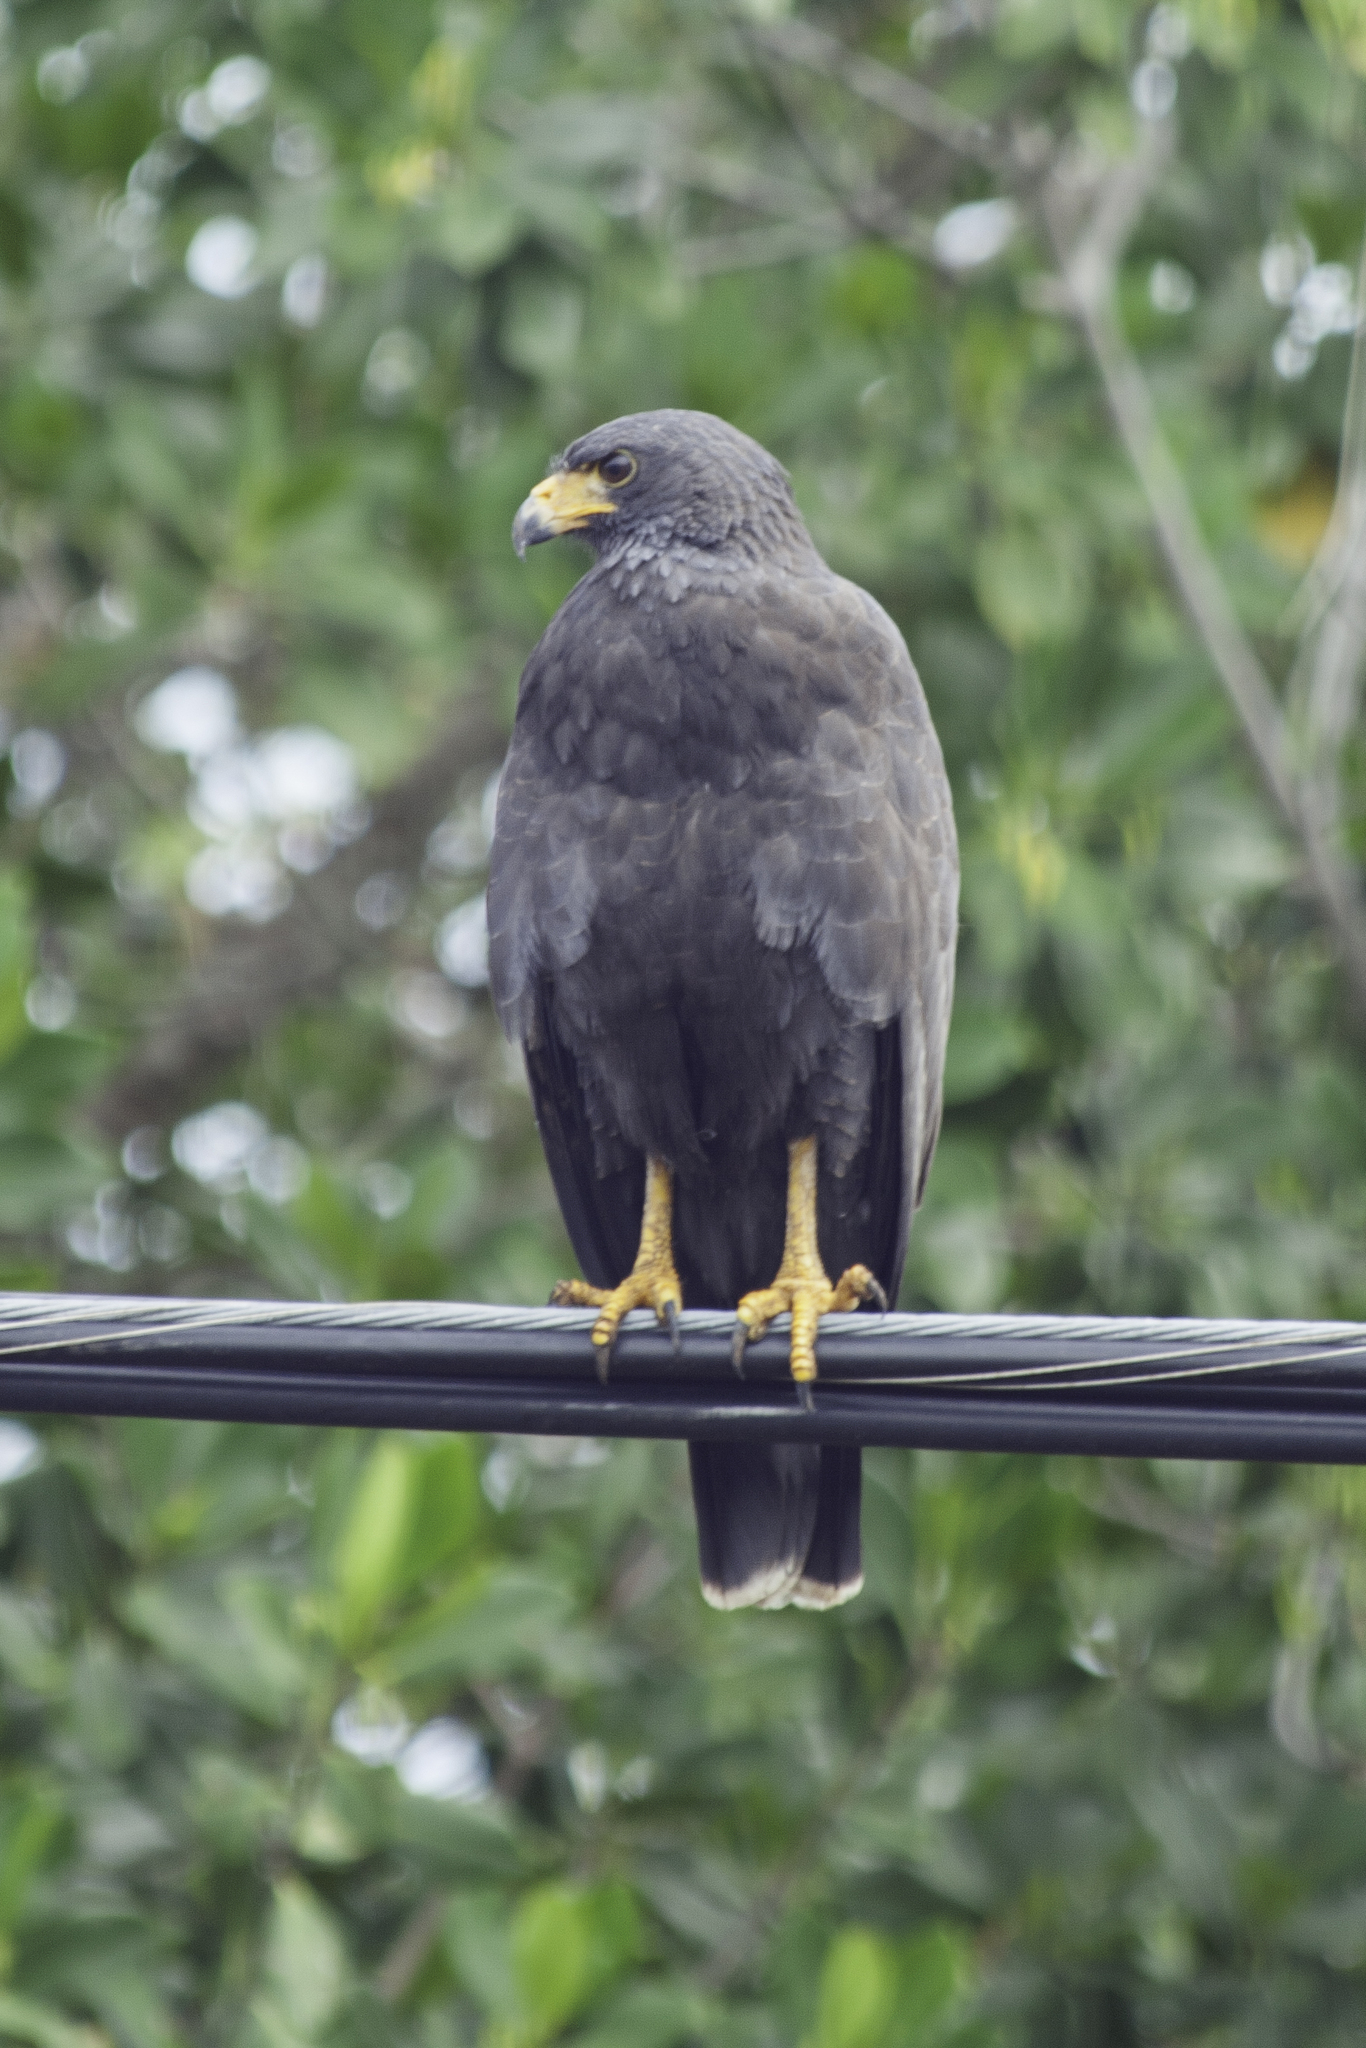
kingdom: Animalia
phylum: Chordata
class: Aves
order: Accipitriformes
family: Accipitridae
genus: Buteogallus
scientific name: Buteogallus anthracinus
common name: Common black hawk
